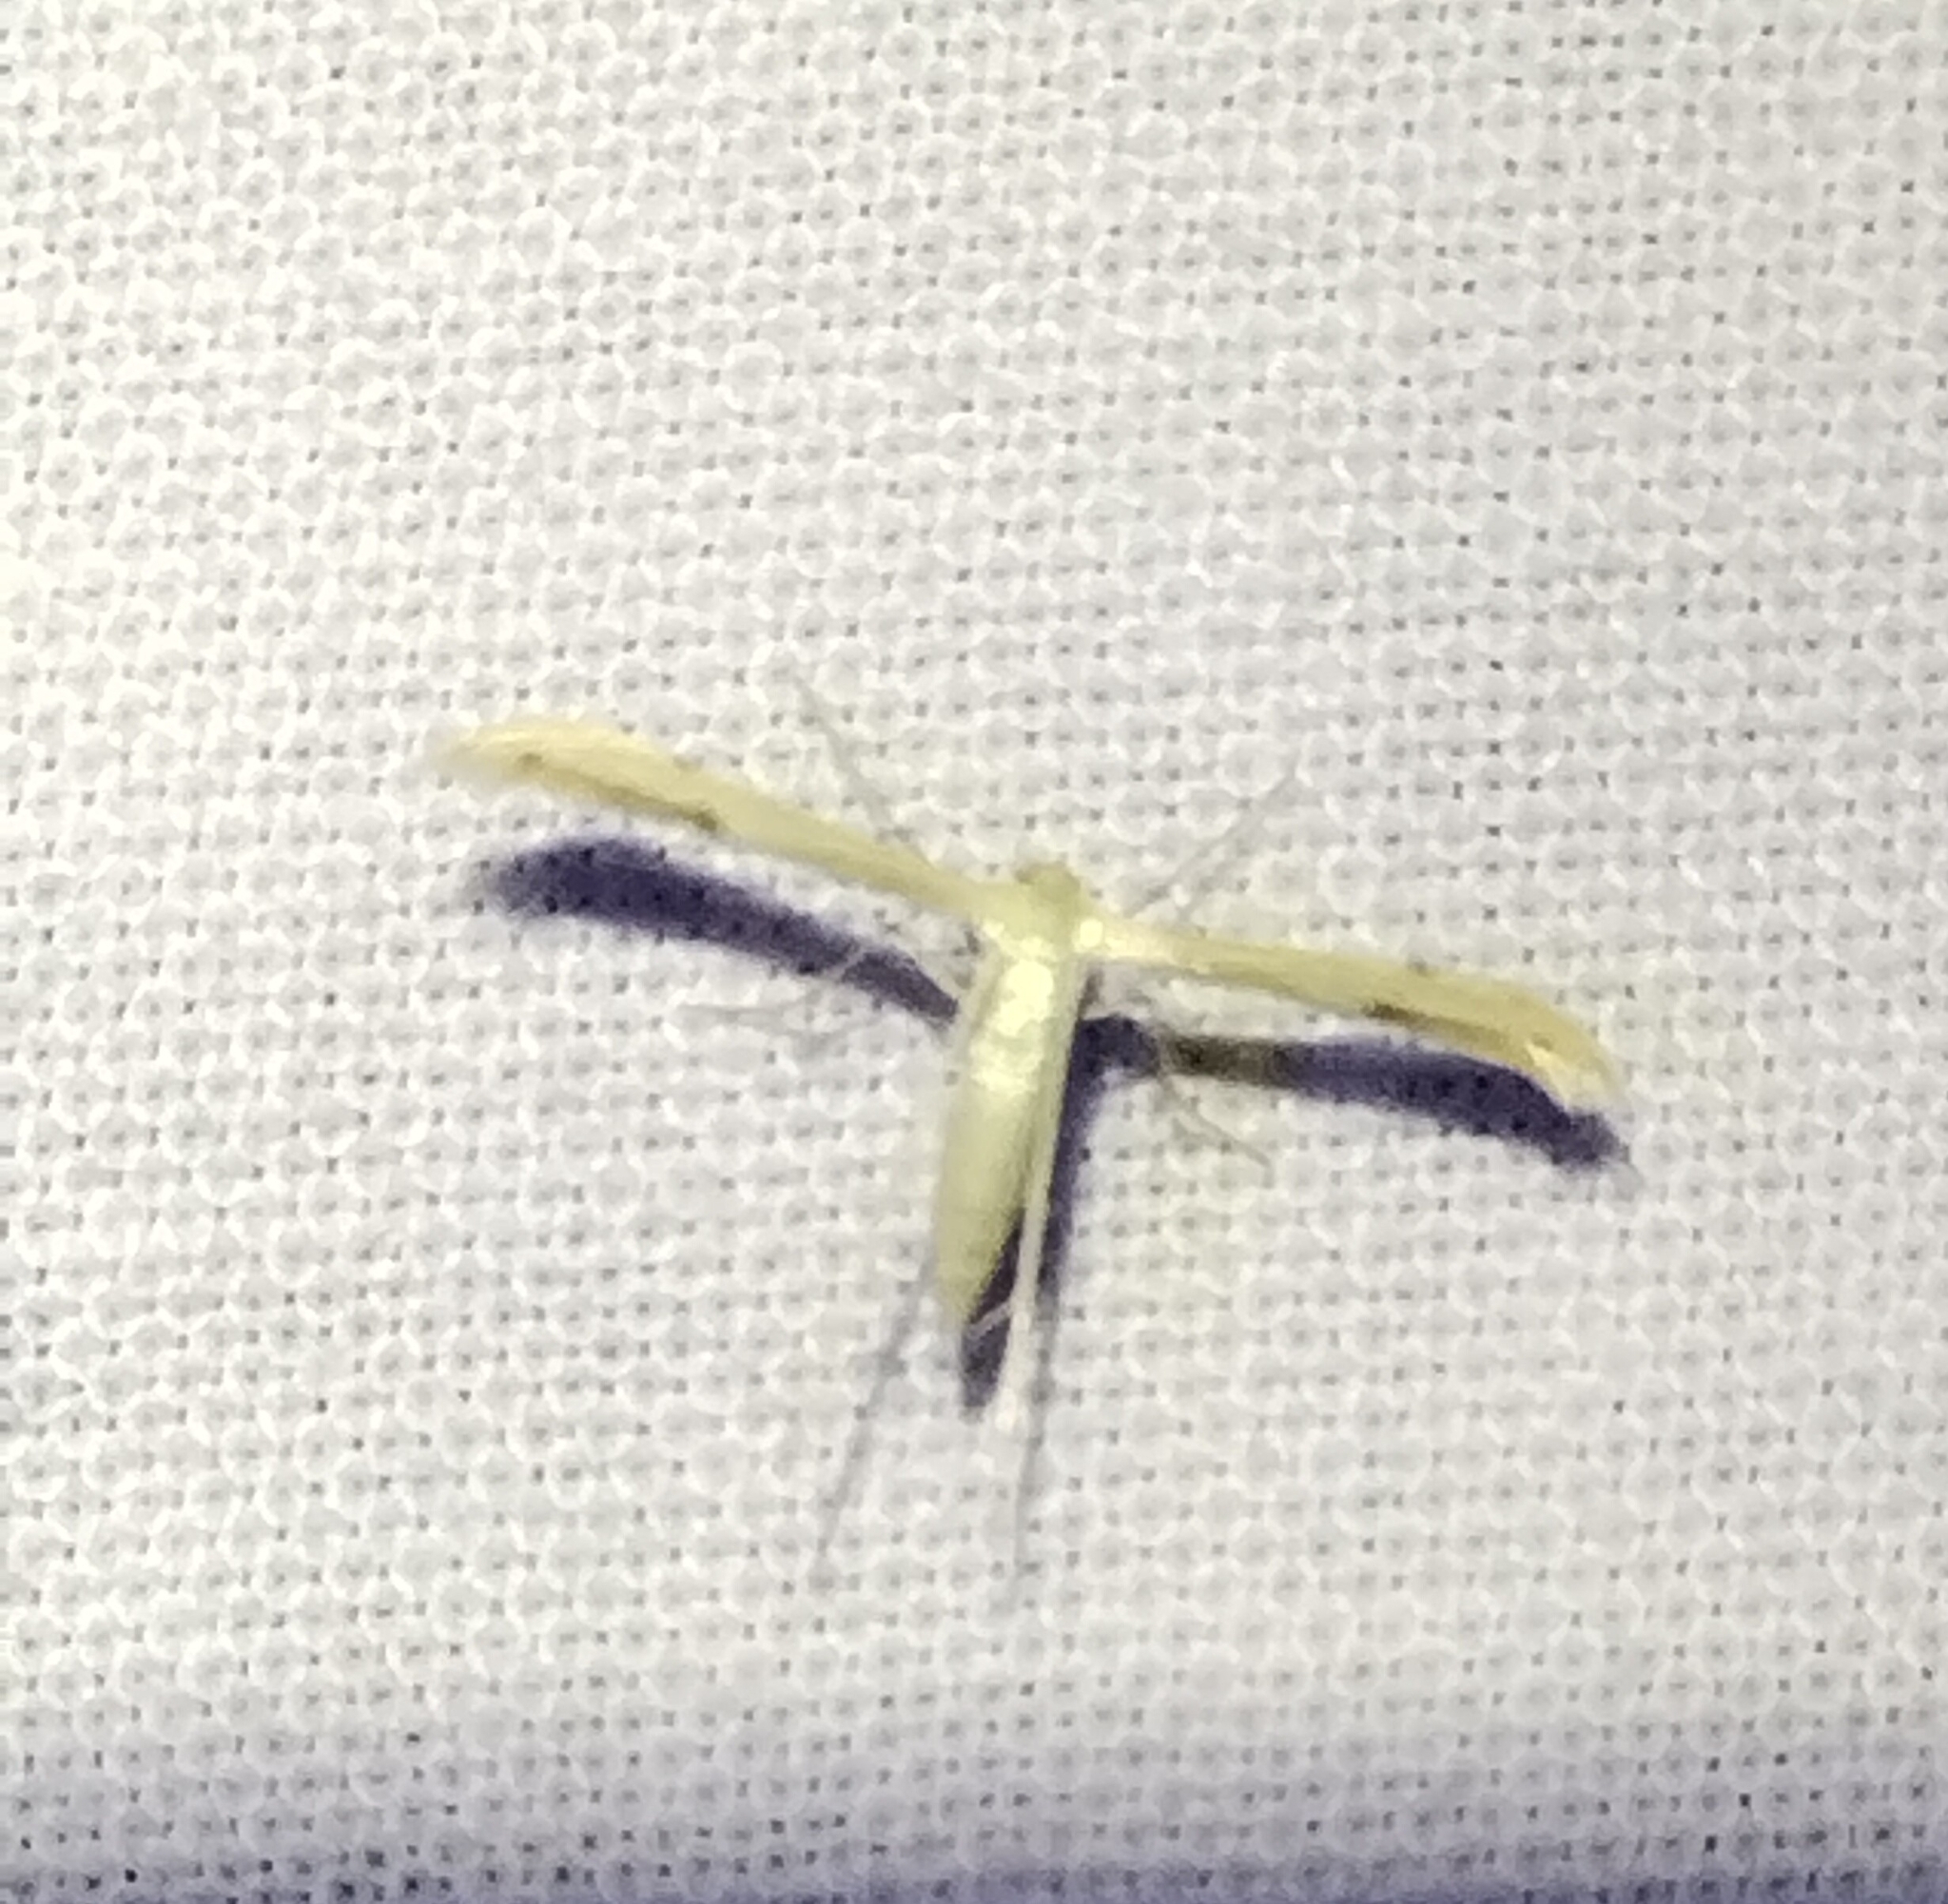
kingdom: Animalia
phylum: Arthropoda
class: Insecta
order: Lepidoptera
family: Pterophoridae
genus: Adaina
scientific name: Adaina
